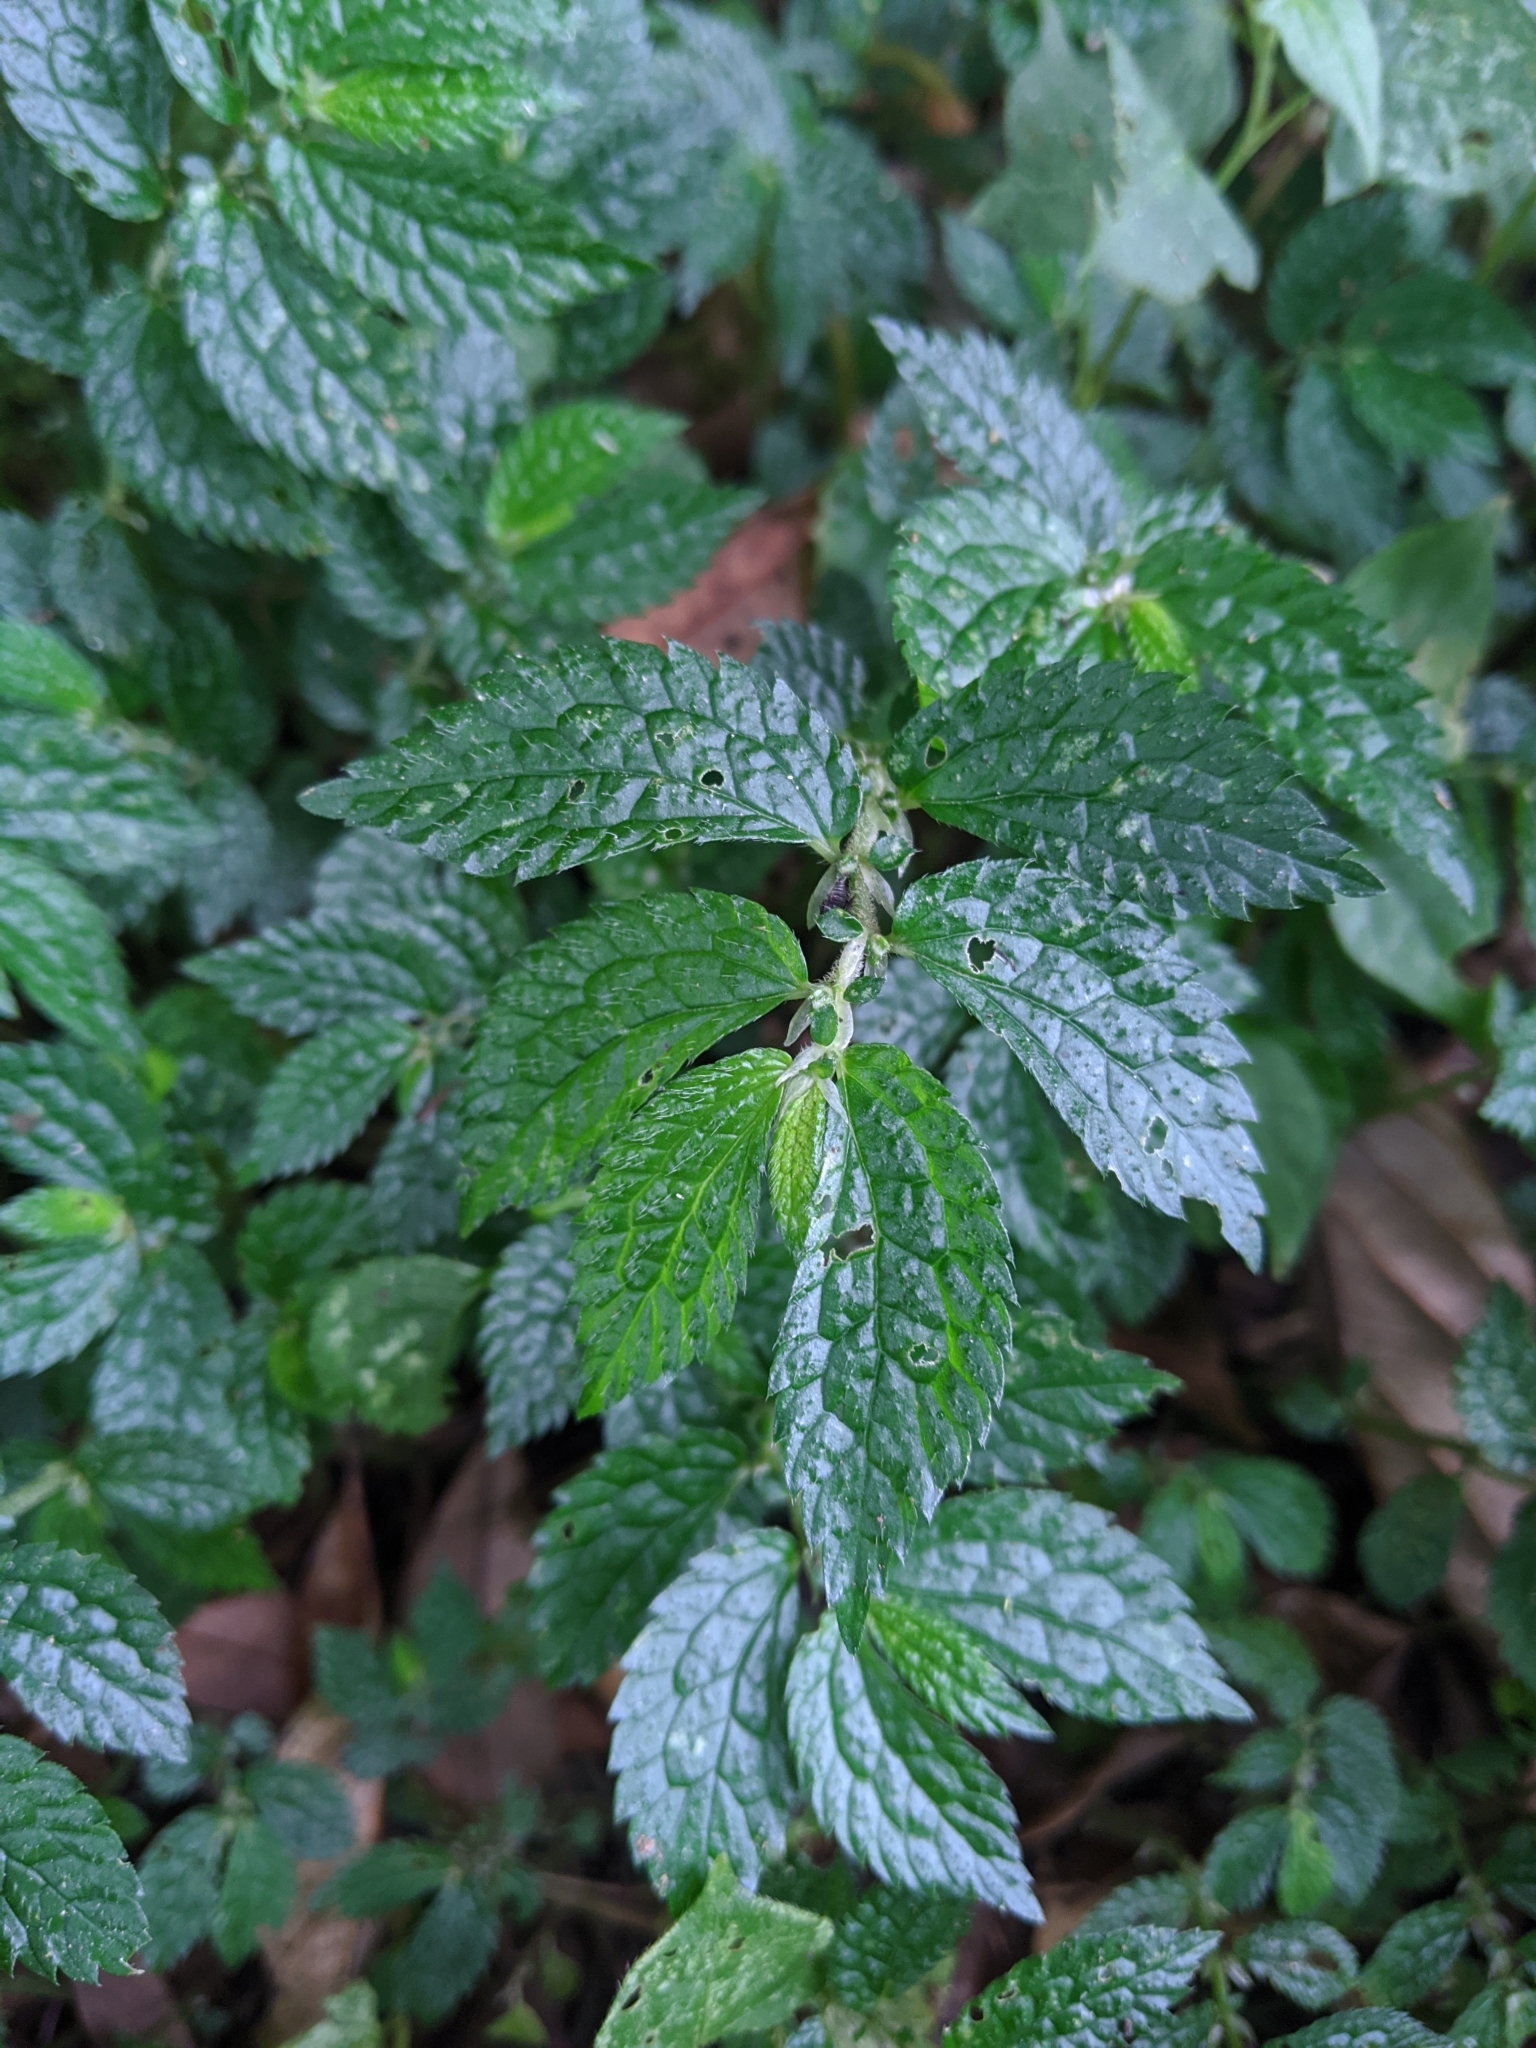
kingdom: Plantae
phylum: Tracheophyta
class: Magnoliopsida
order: Rosales
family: Urticaceae
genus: Elatostema
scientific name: Elatostema parvum
